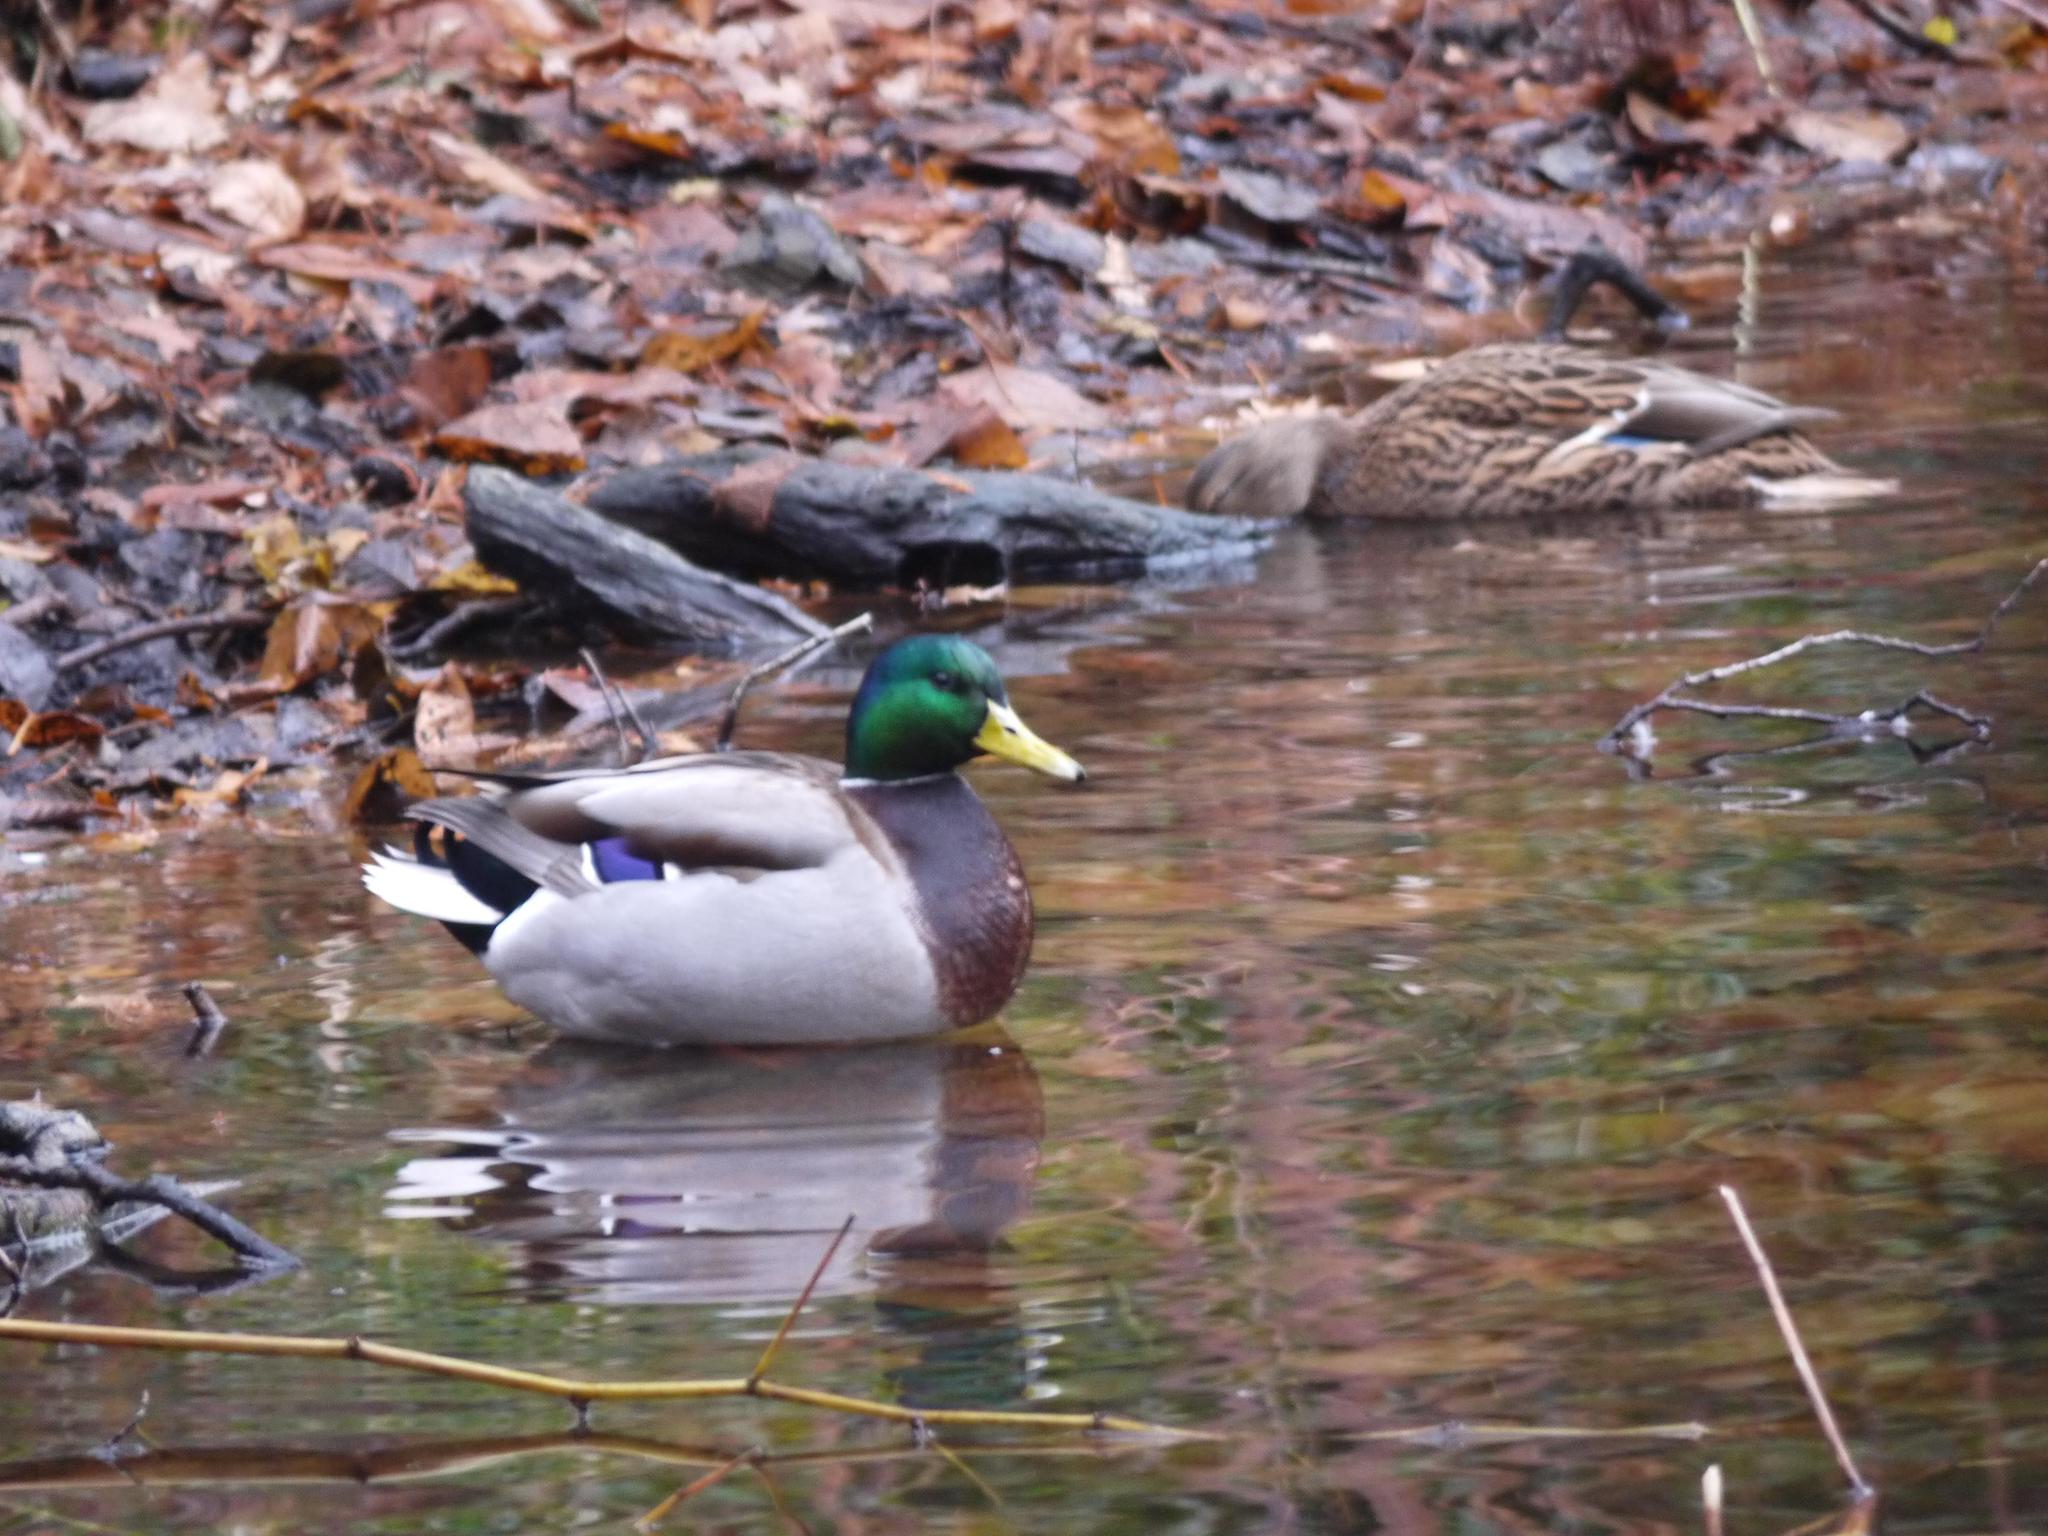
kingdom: Animalia
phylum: Chordata
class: Aves
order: Anseriformes
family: Anatidae
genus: Anas
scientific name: Anas platyrhynchos
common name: Mallard
